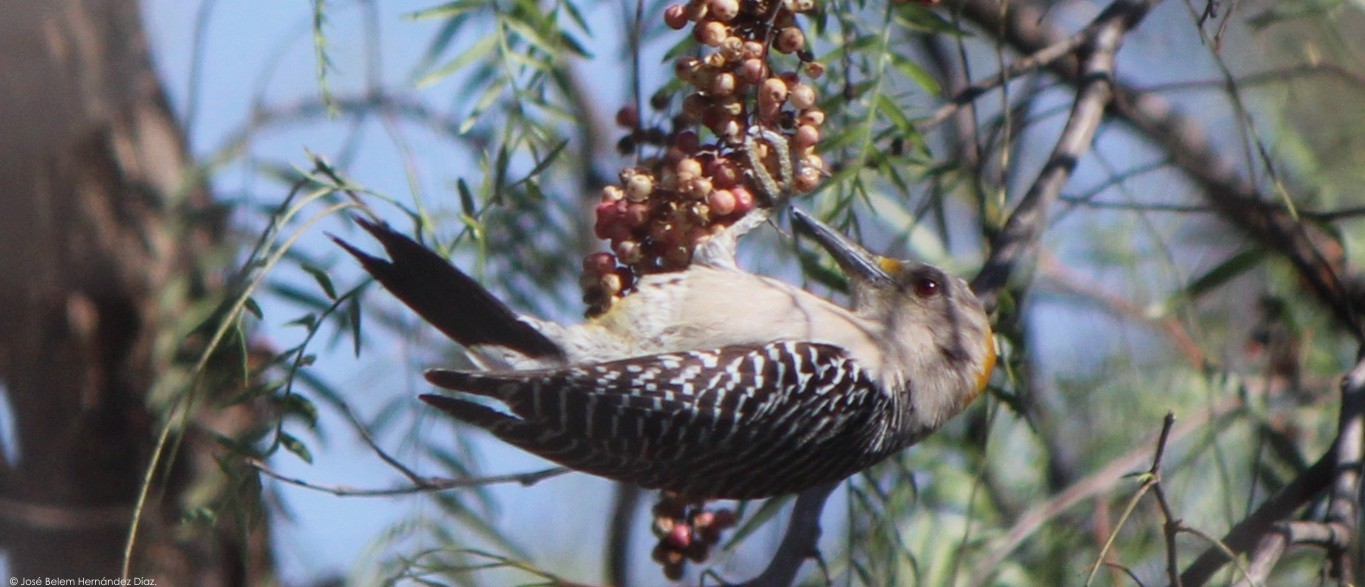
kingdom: Animalia
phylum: Chordata
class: Aves
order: Piciformes
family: Picidae
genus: Melanerpes
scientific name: Melanerpes aurifrons
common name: Golden-fronted woodpecker
